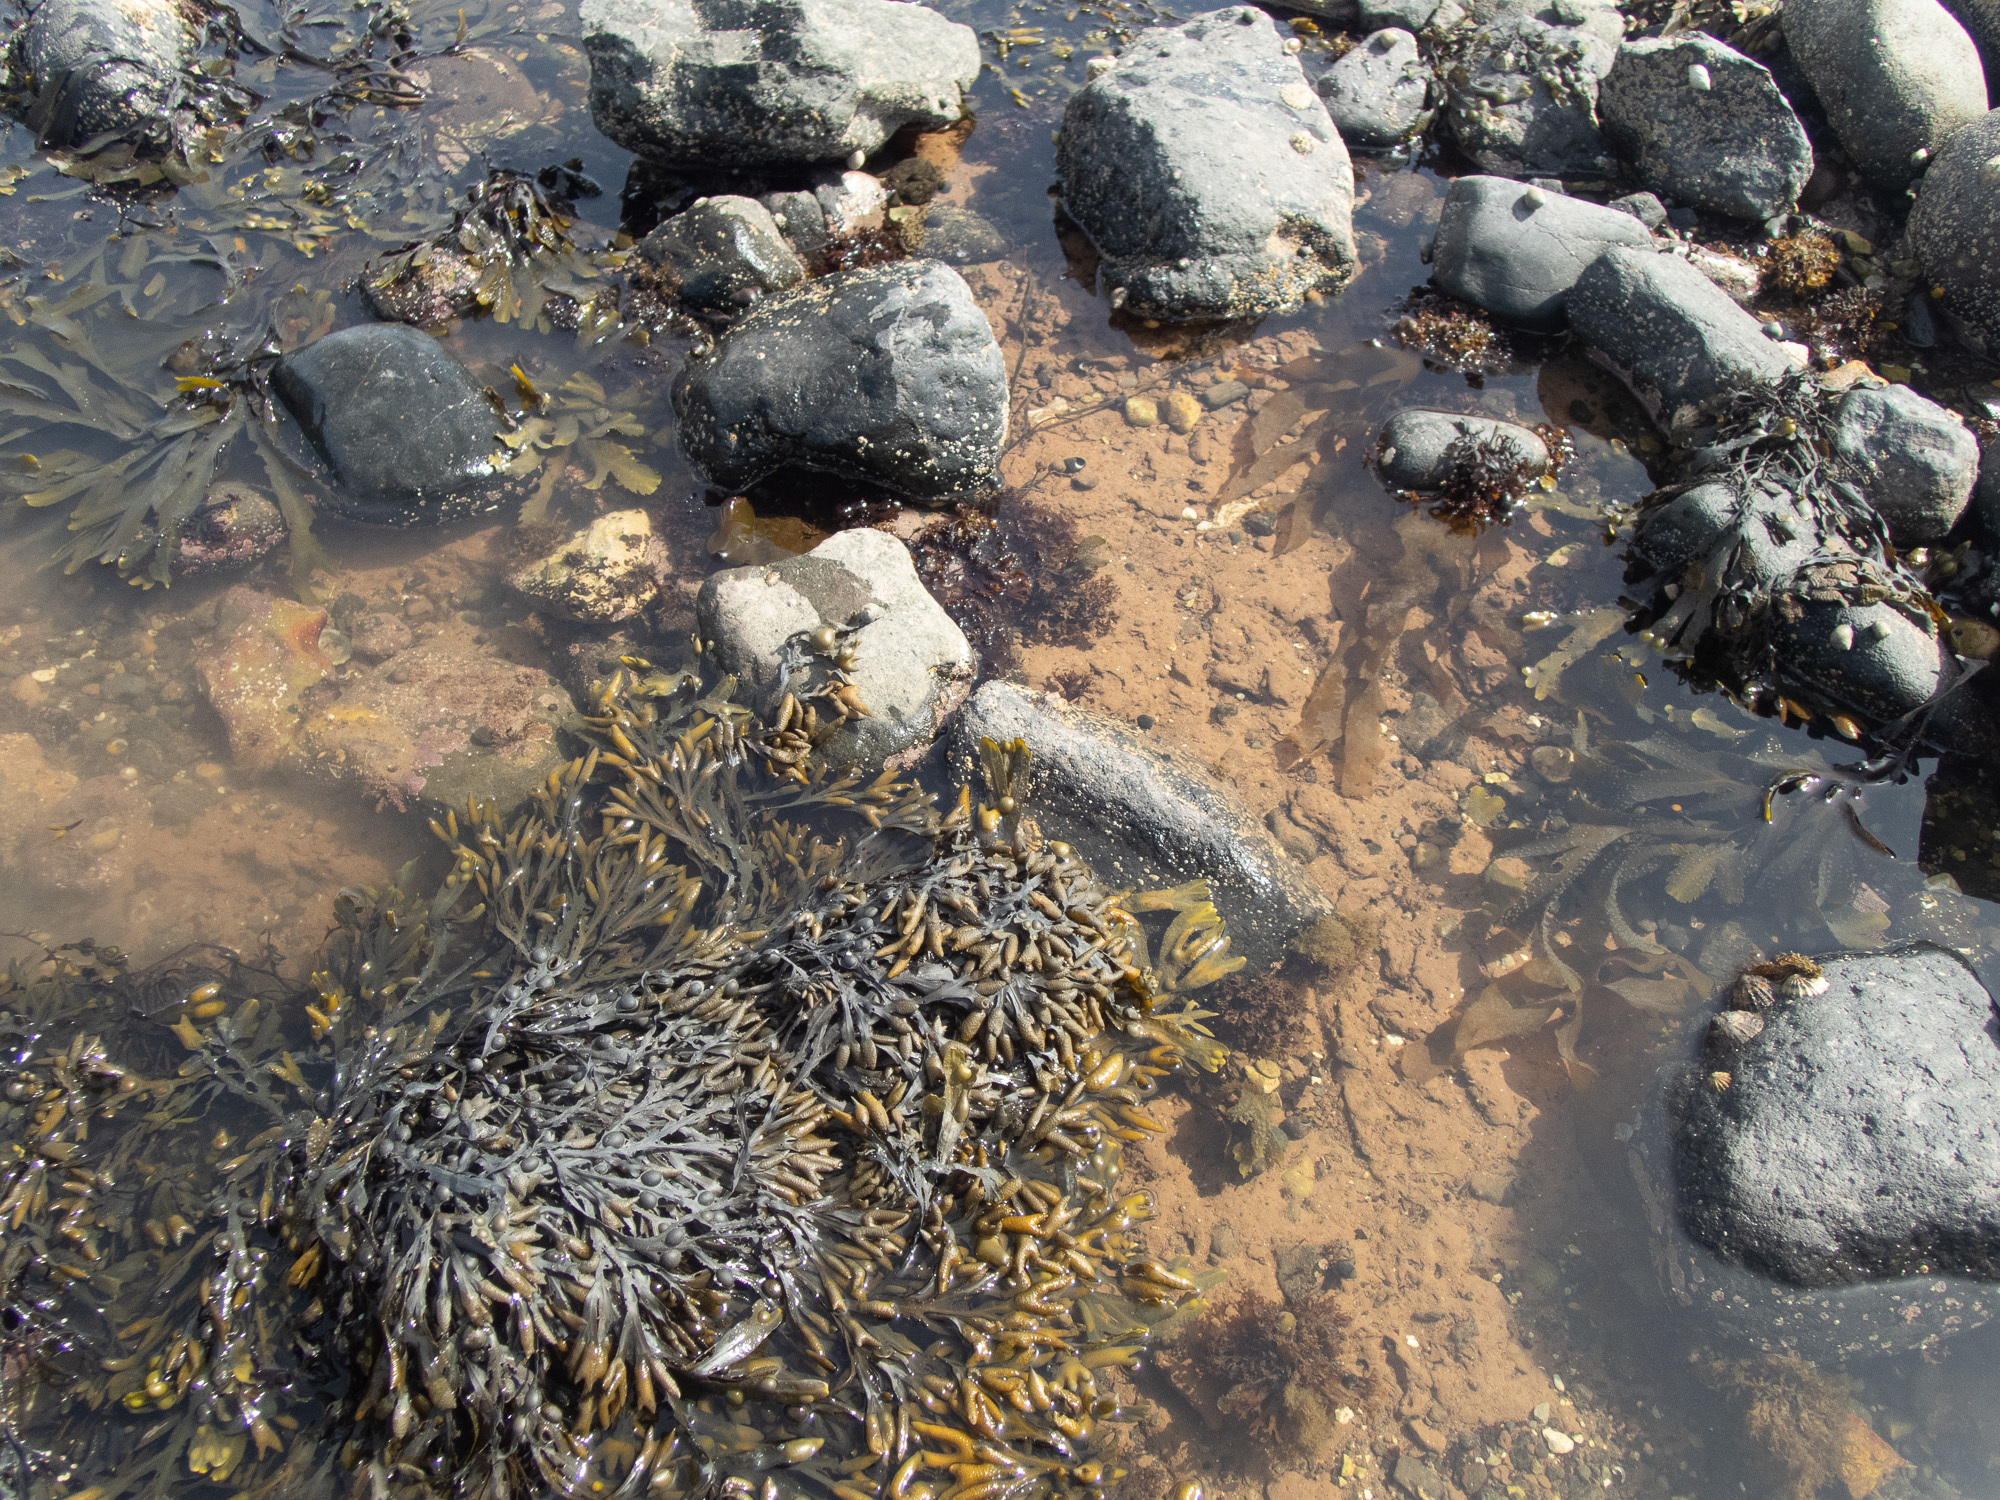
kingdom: Chromista
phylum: Ochrophyta
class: Phaeophyceae
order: Fucales
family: Fucaceae
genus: Fucus
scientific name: Fucus vesiculosus
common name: Bladder wrack
